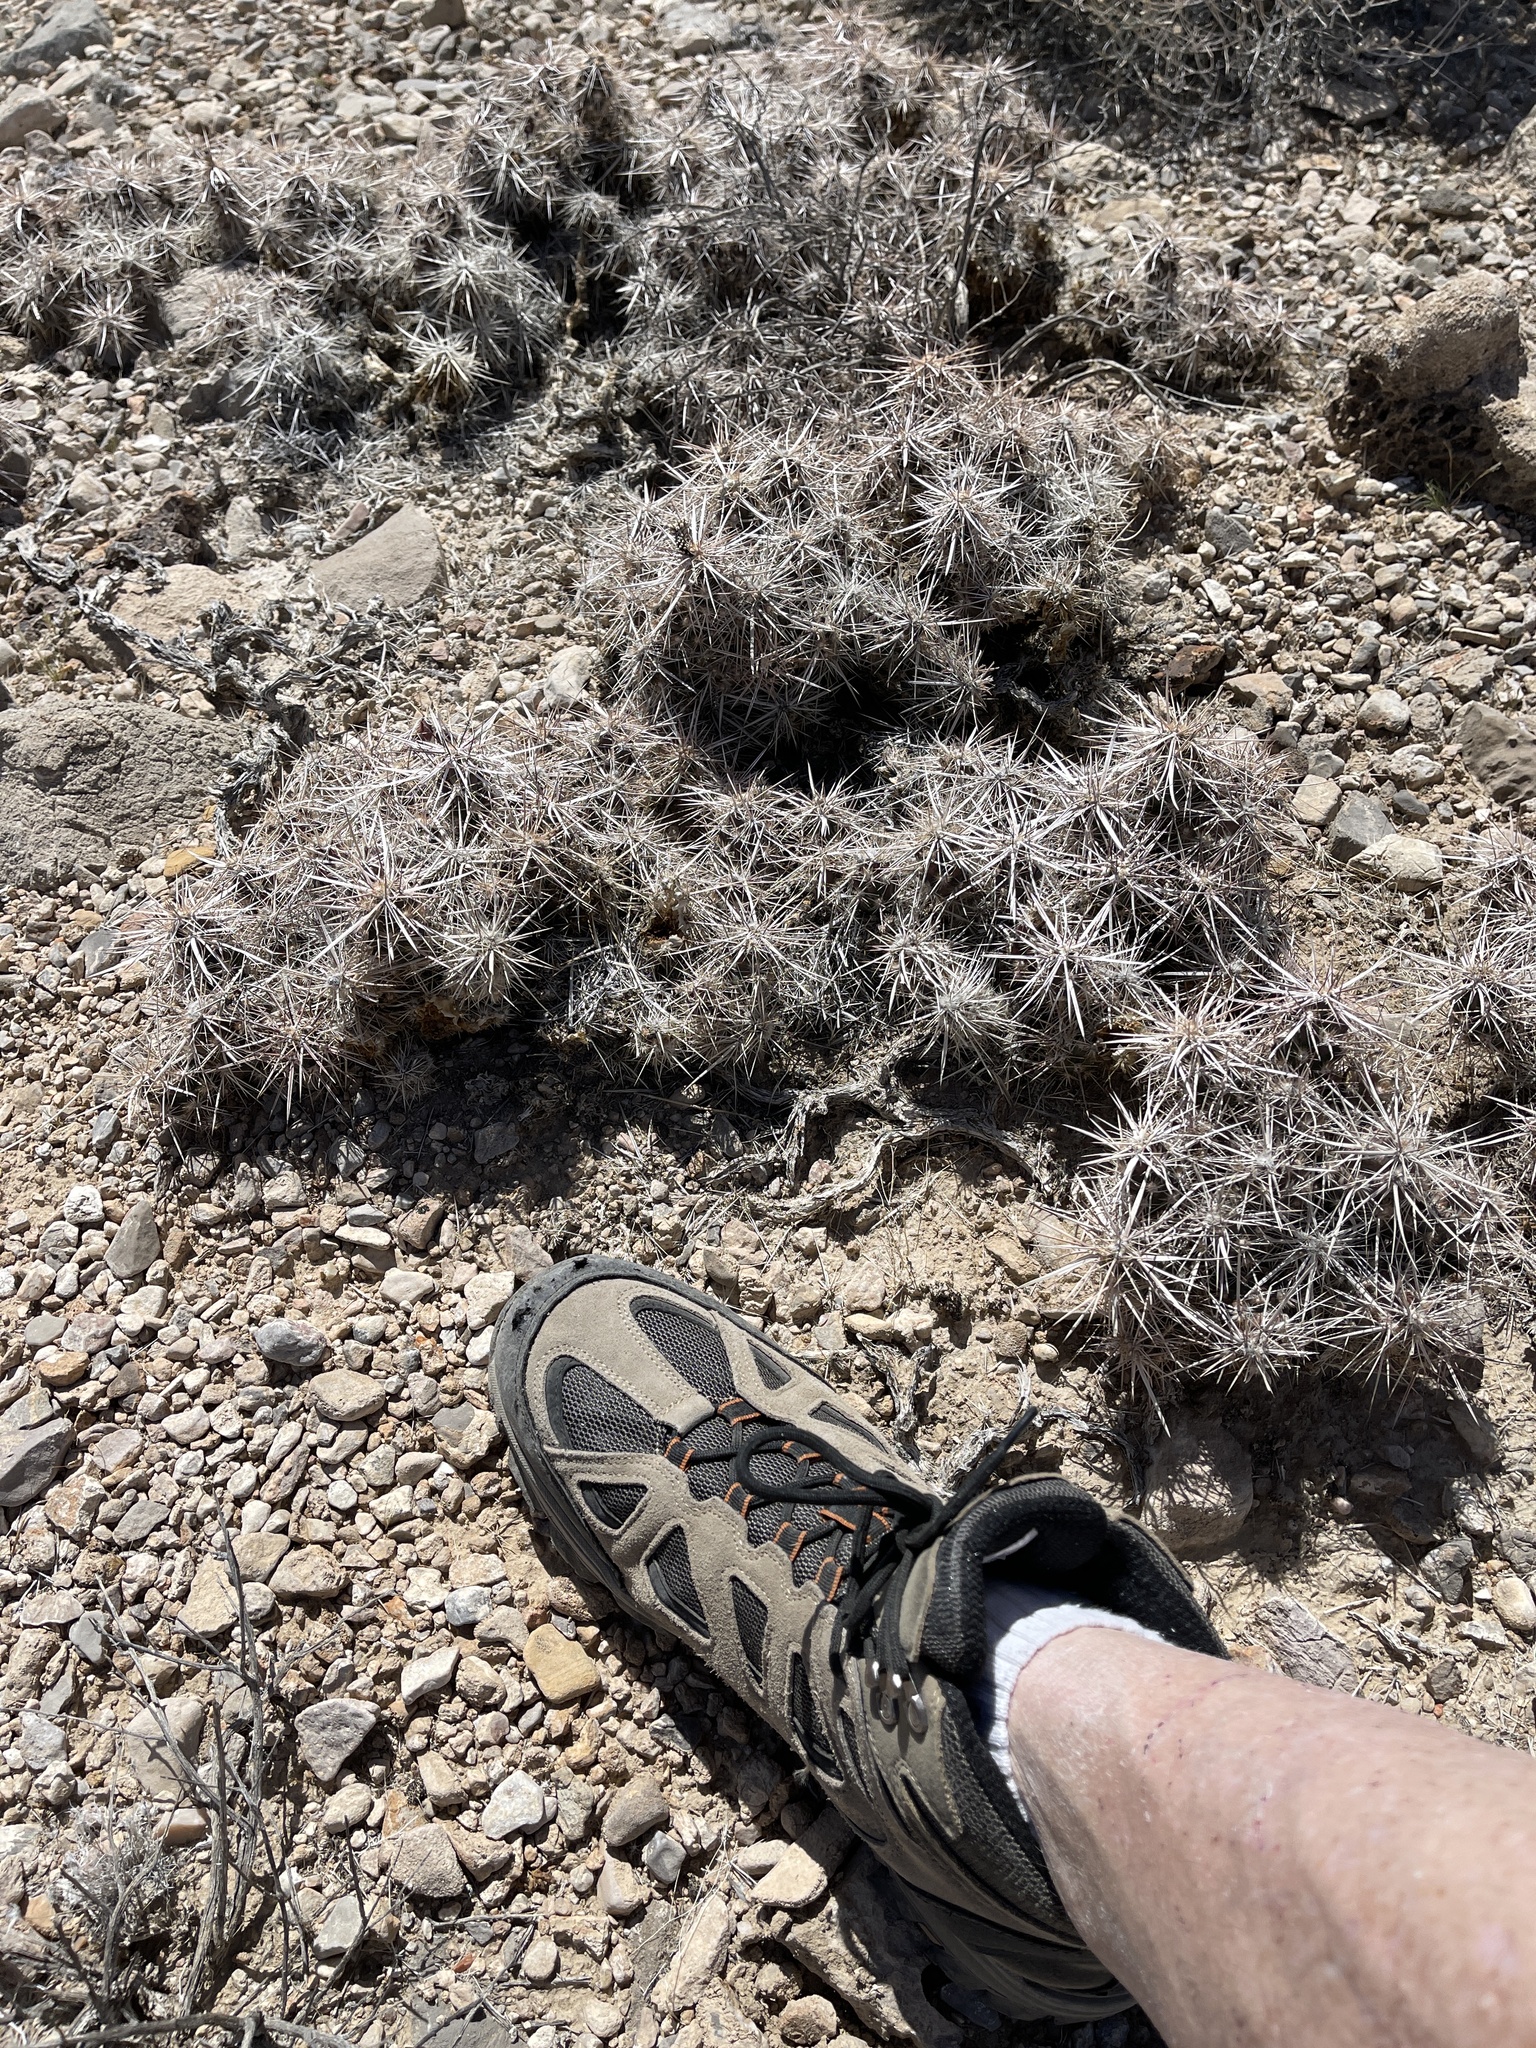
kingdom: Plantae
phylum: Tracheophyta
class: Magnoliopsida
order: Caryophyllales
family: Cactaceae
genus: Grusonia
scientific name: Grusonia parishiorum
